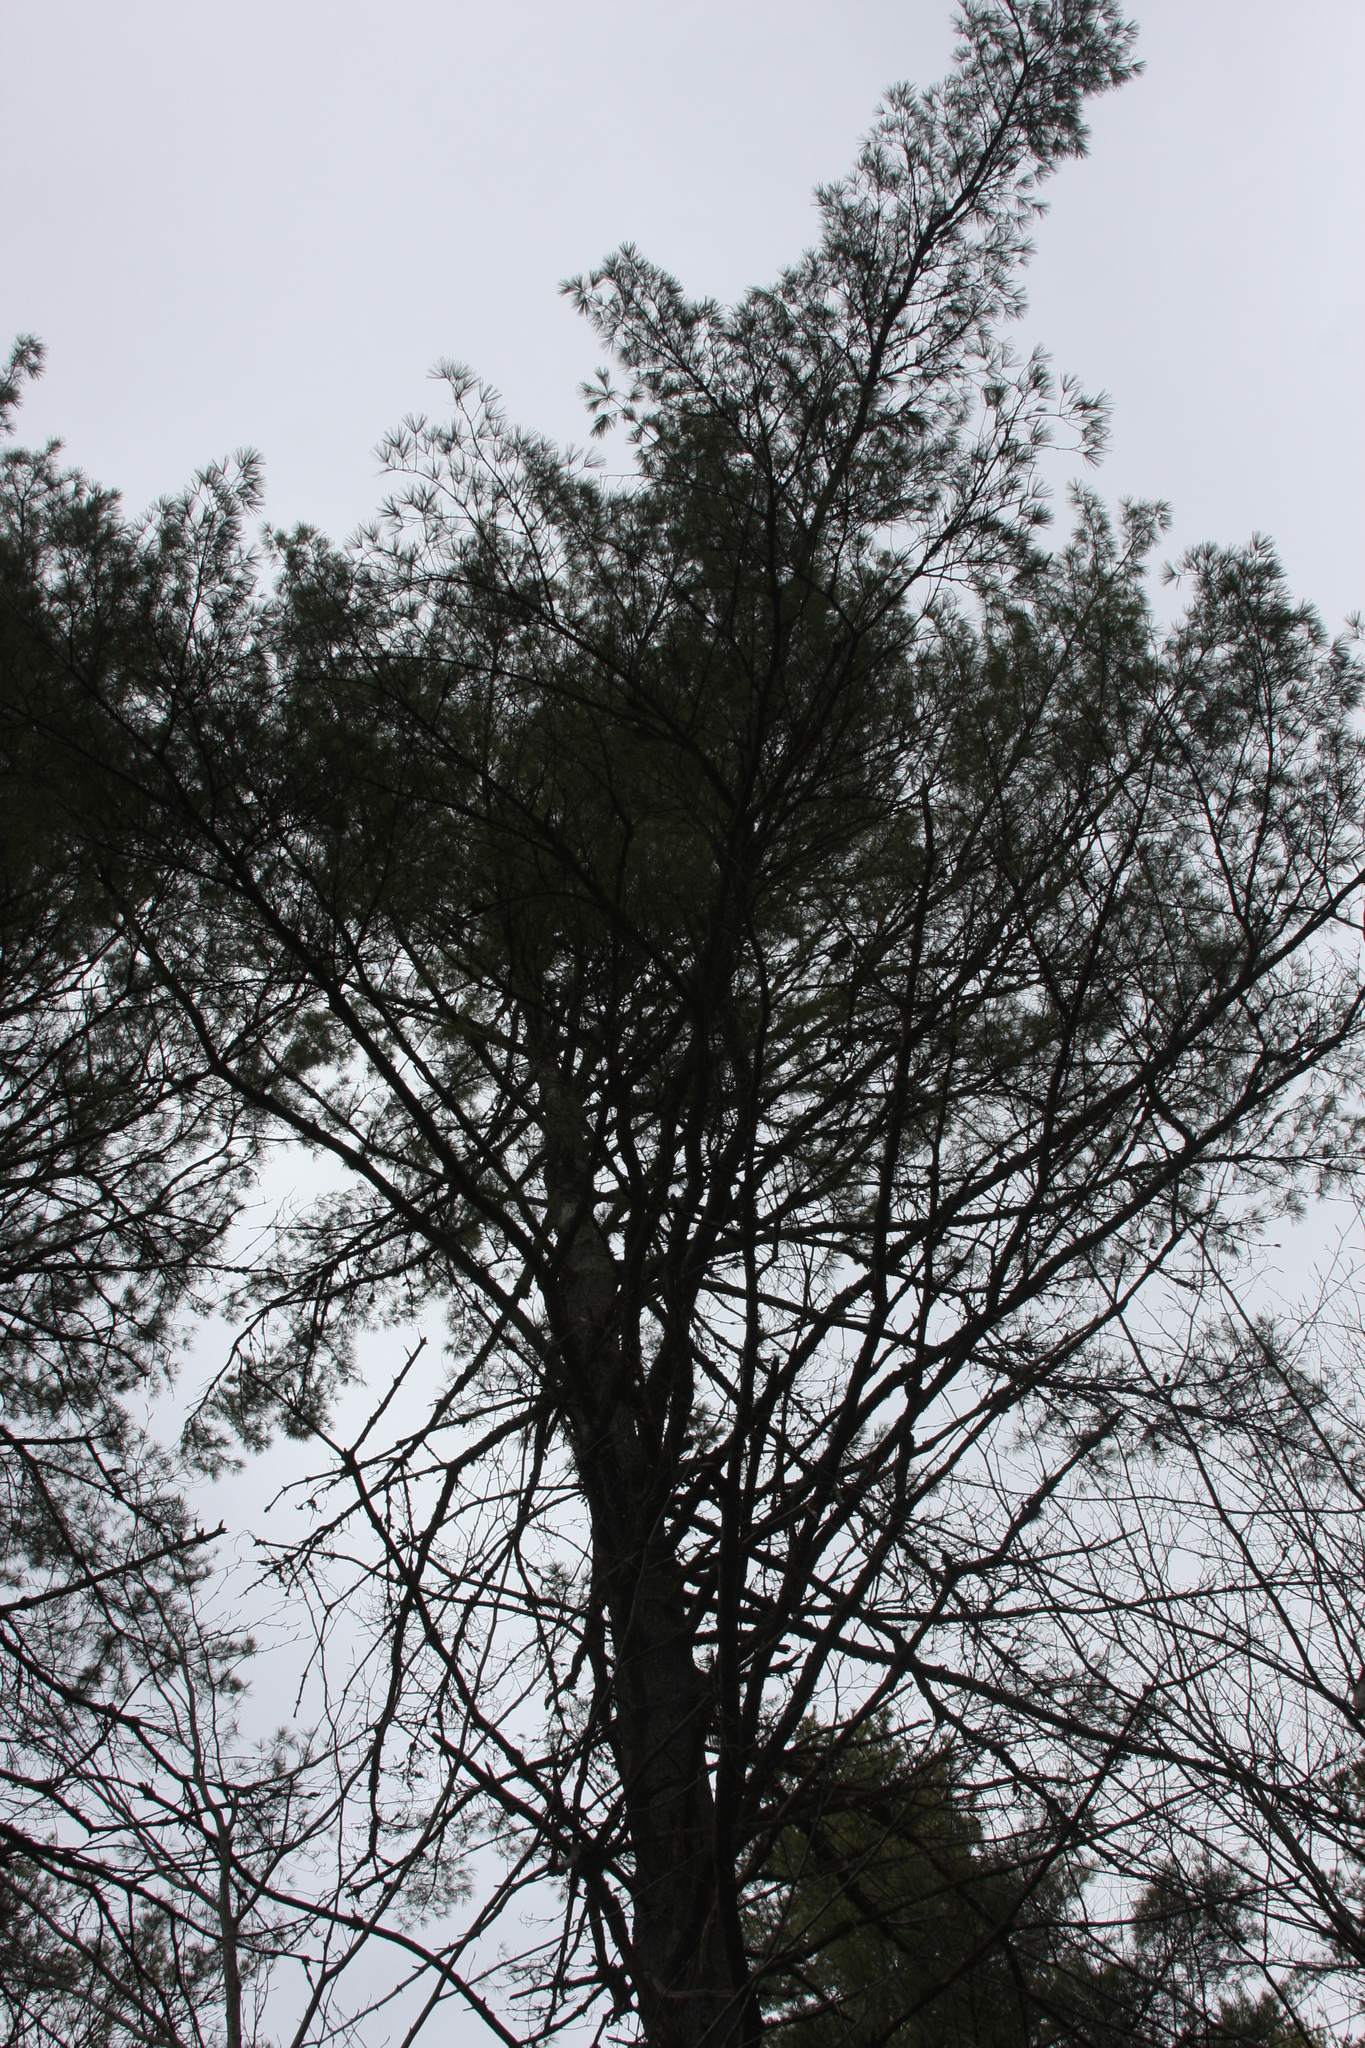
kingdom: Plantae
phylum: Tracheophyta
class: Pinopsida
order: Pinales
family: Pinaceae
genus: Pinus
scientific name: Pinus strobus
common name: Weymouth pine
